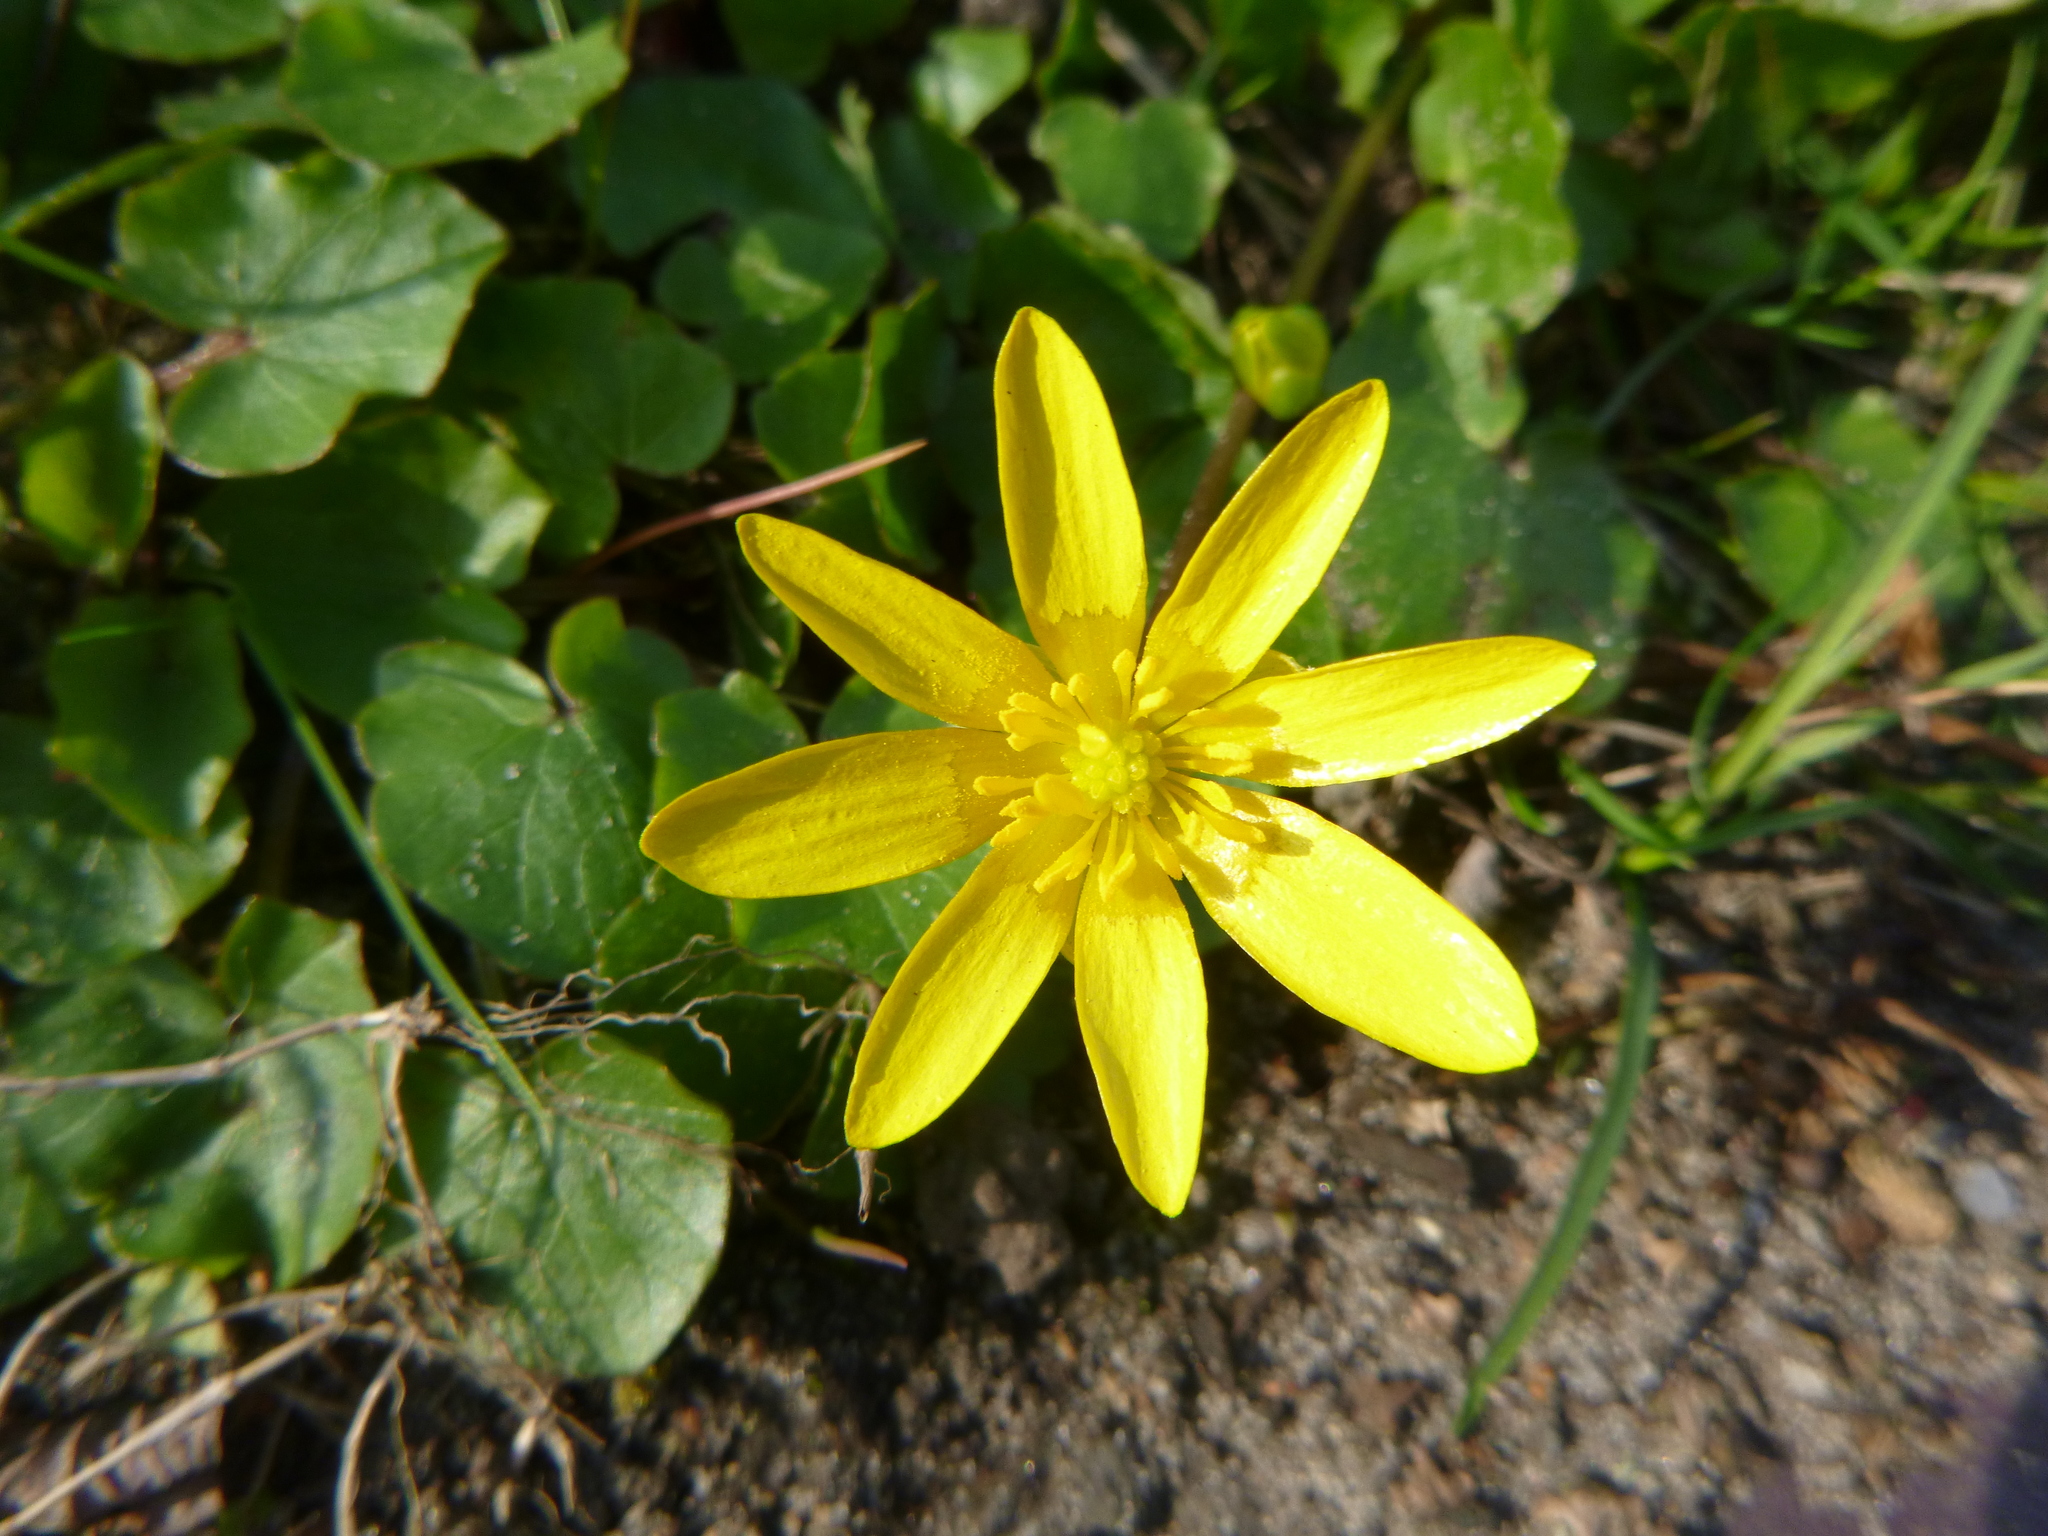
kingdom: Plantae
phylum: Tracheophyta
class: Magnoliopsida
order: Ranunculales
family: Ranunculaceae
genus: Ficaria
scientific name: Ficaria verna
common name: Lesser celandine
